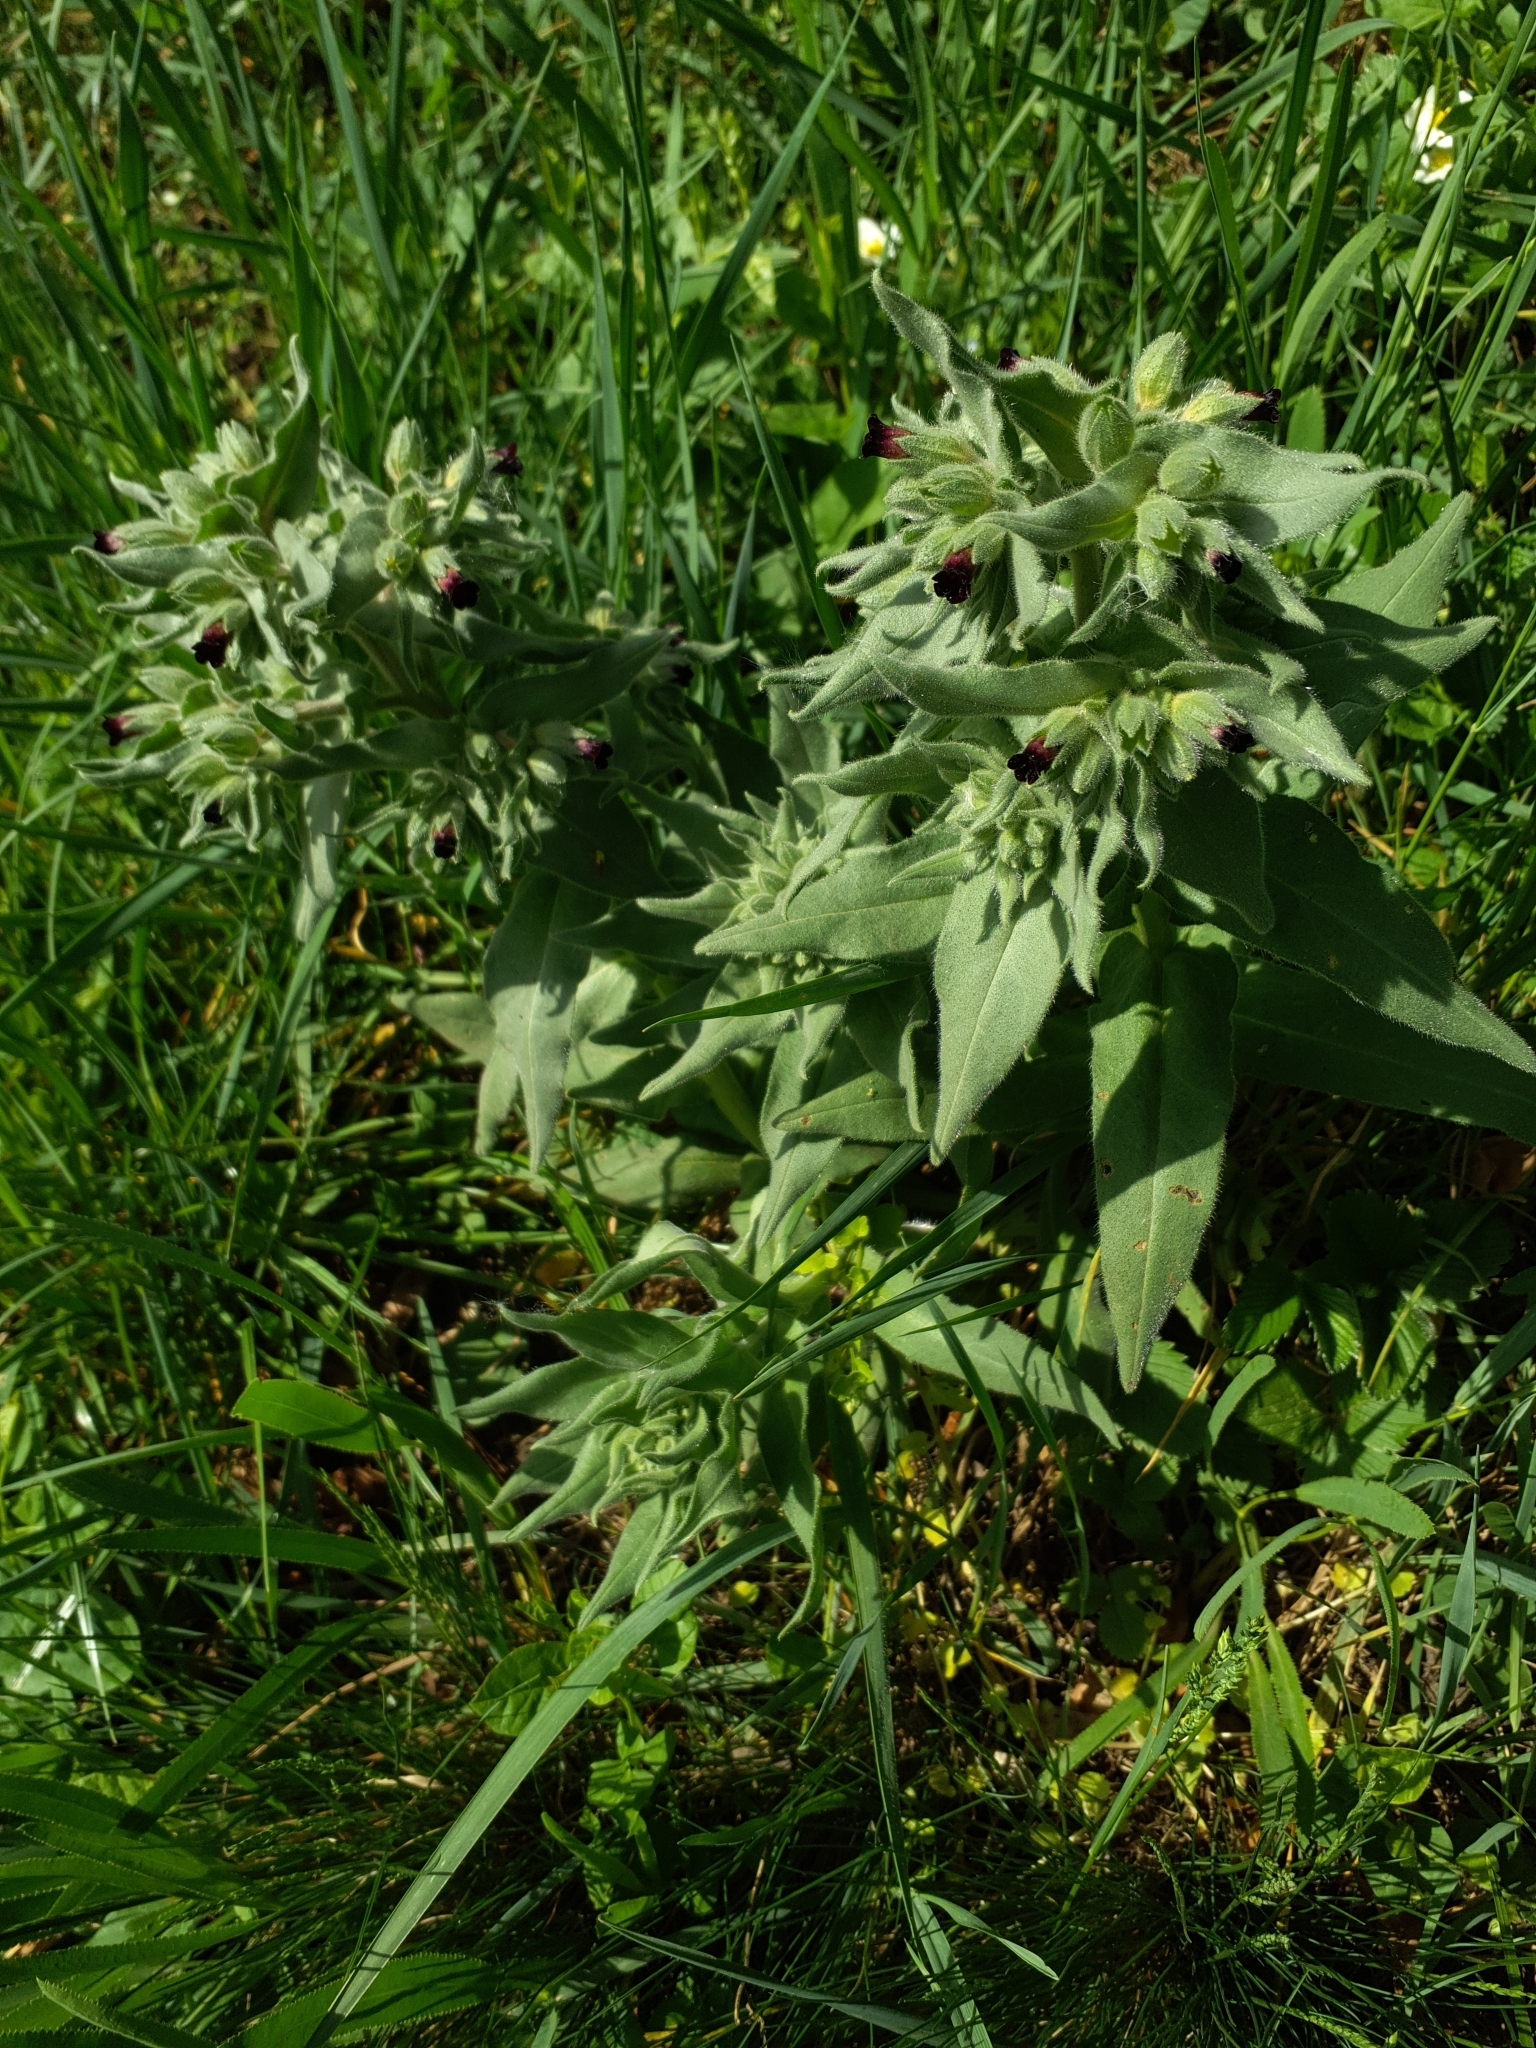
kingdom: Plantae
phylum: Tracheophyta
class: Magnoliopsida
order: Boraginales
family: Boraginaceae
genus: Nonea
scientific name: Nonea pulla
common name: Brown nonea
